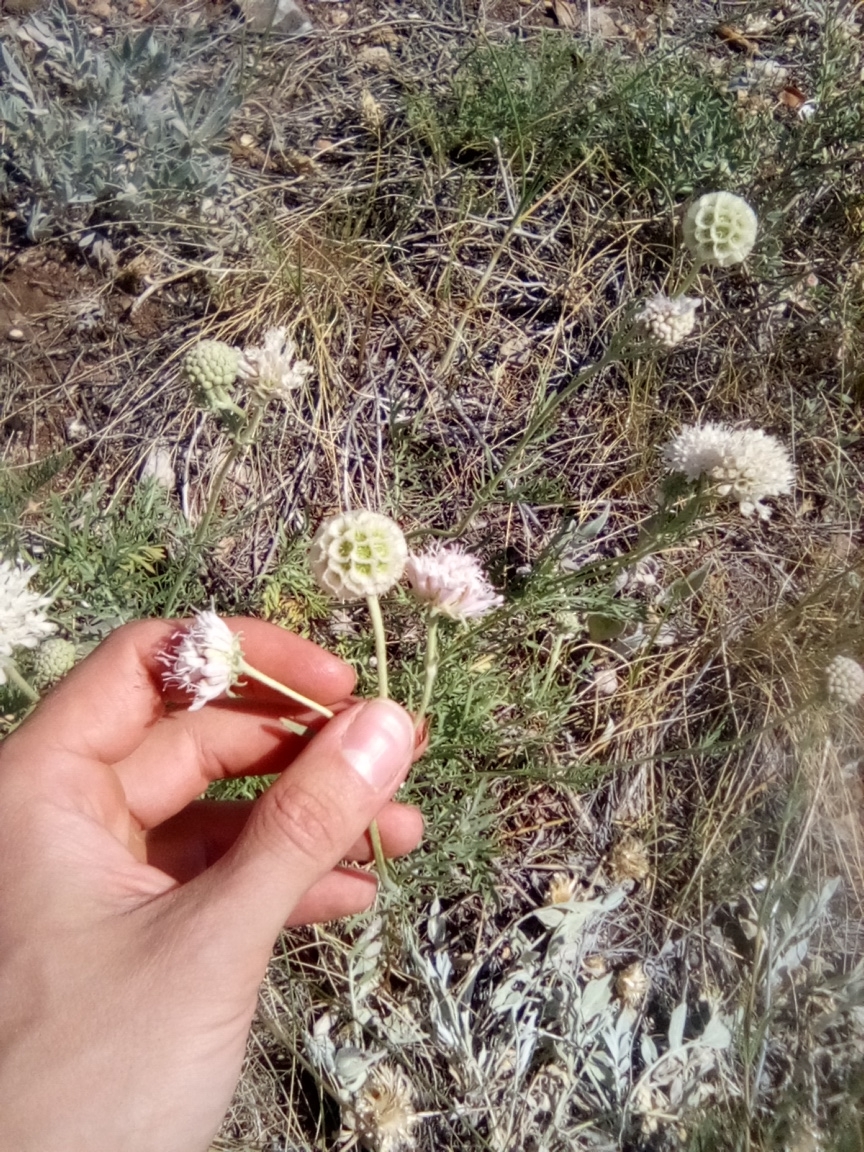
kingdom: Plantae
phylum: Tracheophyta
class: Magnoliopsida
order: Dipsacales
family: Caprifoliaceae
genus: Lomelosia
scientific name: Lomelosia isetensis
